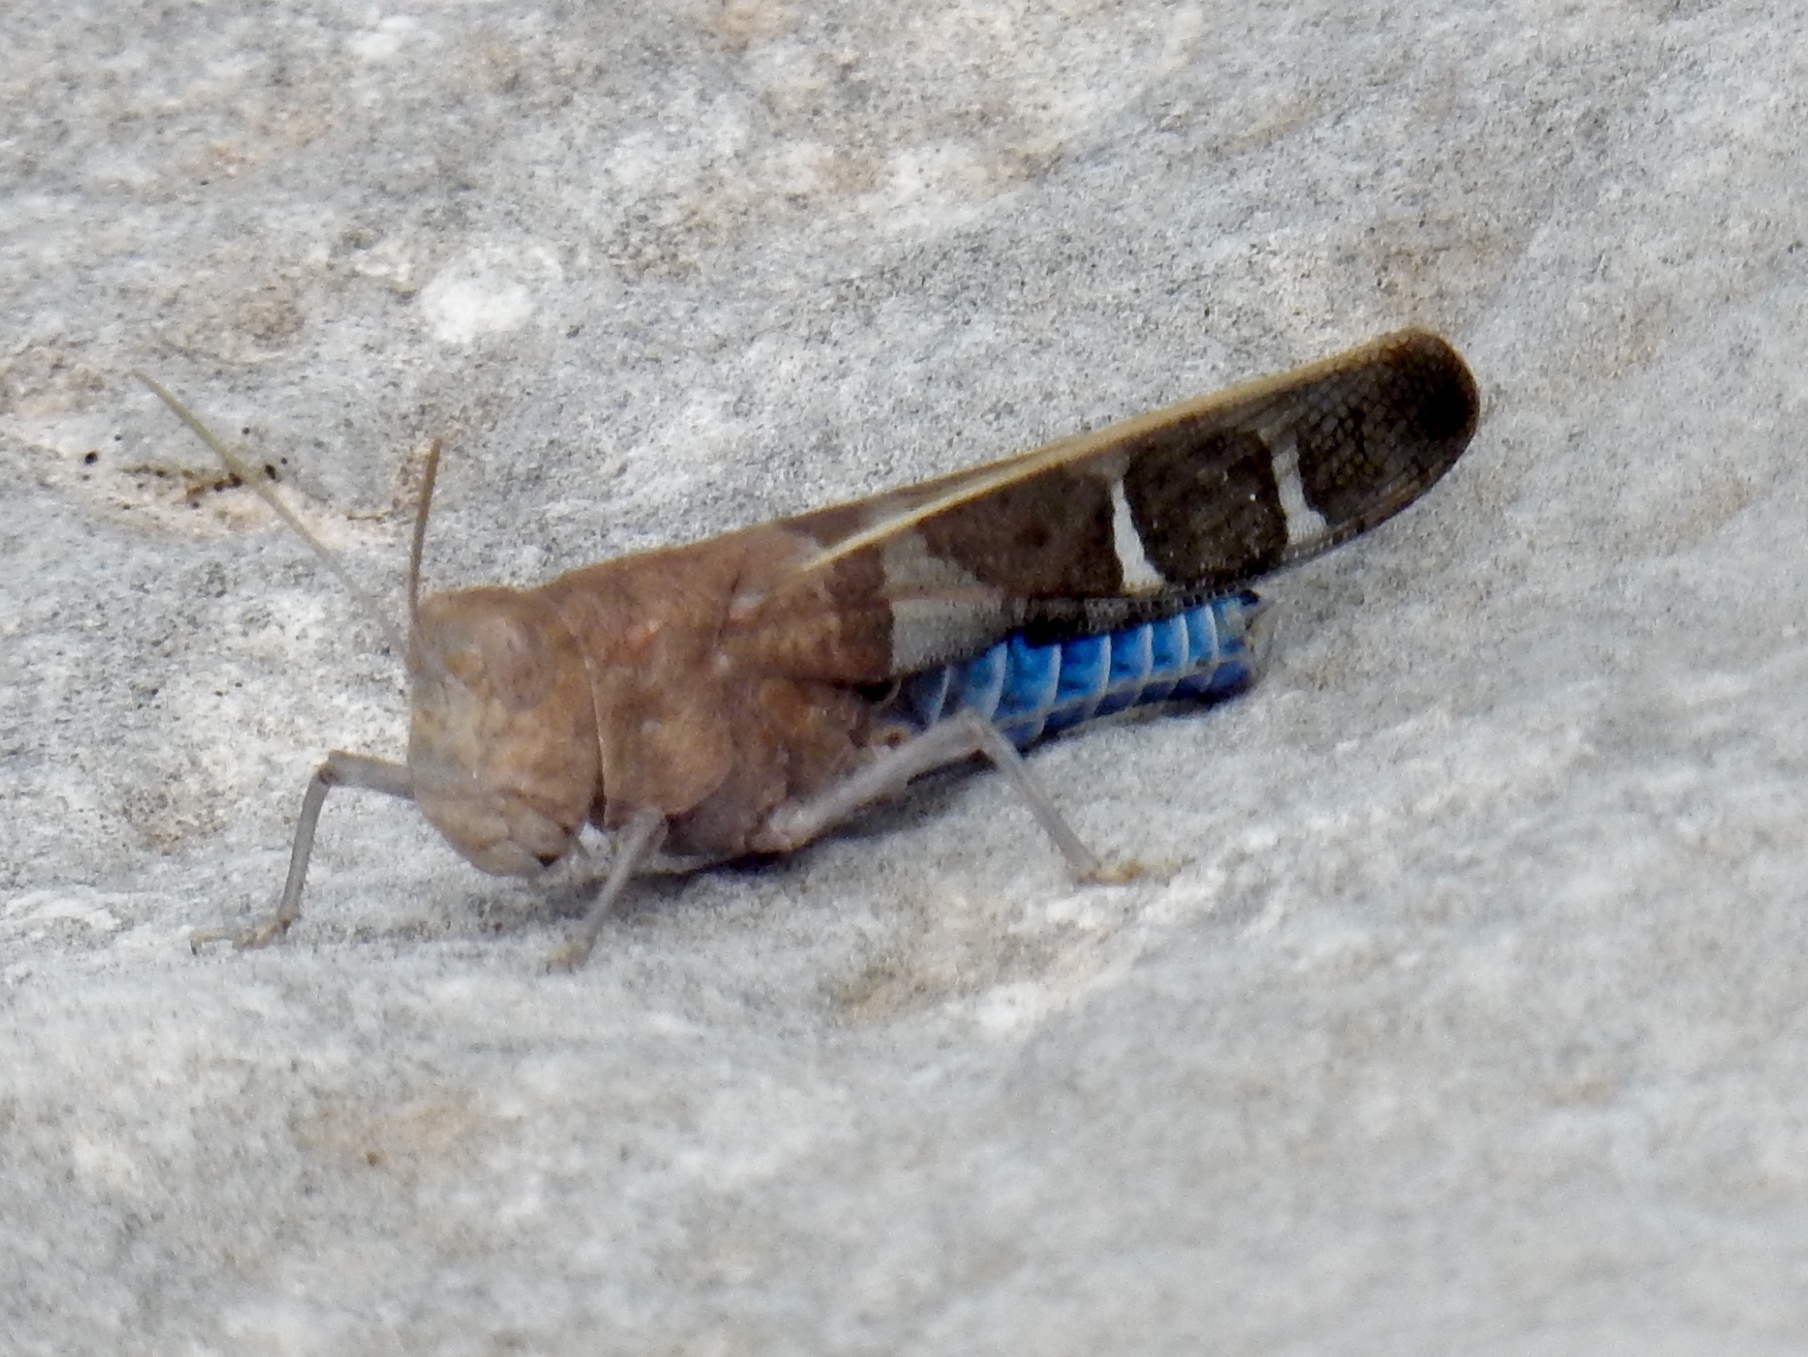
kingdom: Animalia
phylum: Arthropoda
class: Insecta
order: Orthoptera
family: Acrididae
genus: Leprus
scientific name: Leprus intermedius
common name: Saussure's blue-winged grasshopper
